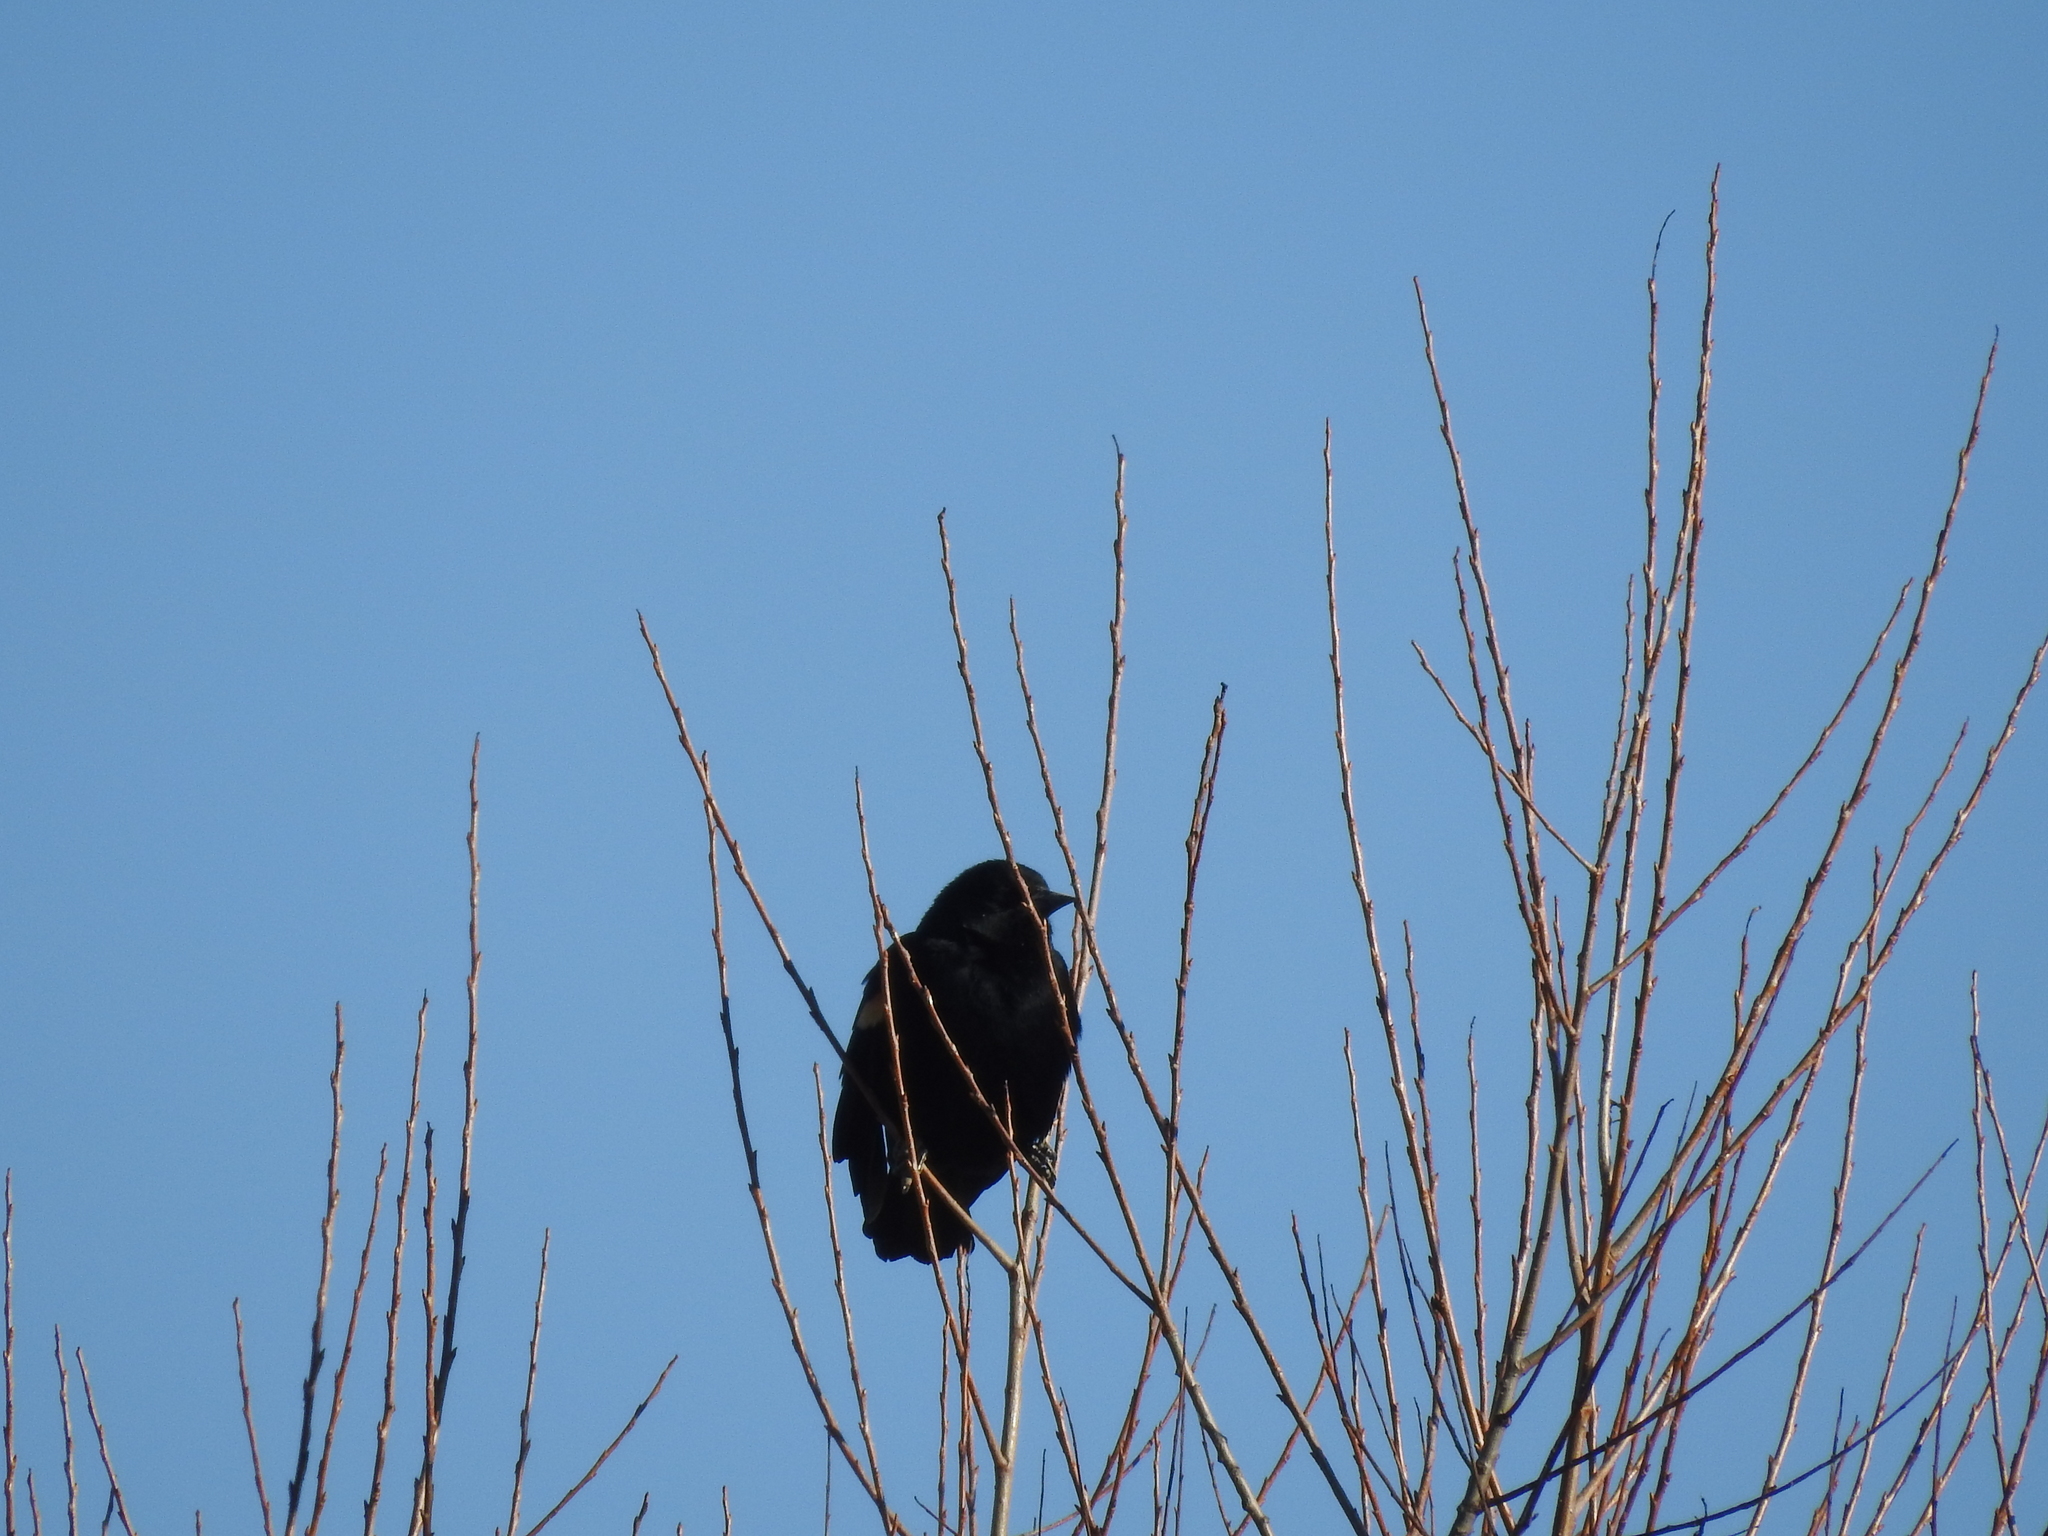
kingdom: Animalia
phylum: Chordata
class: Aves
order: Passeriformes
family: Icteridae
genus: Agelaius
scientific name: Agelaius phoeniceus
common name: Red-winged blackbird
